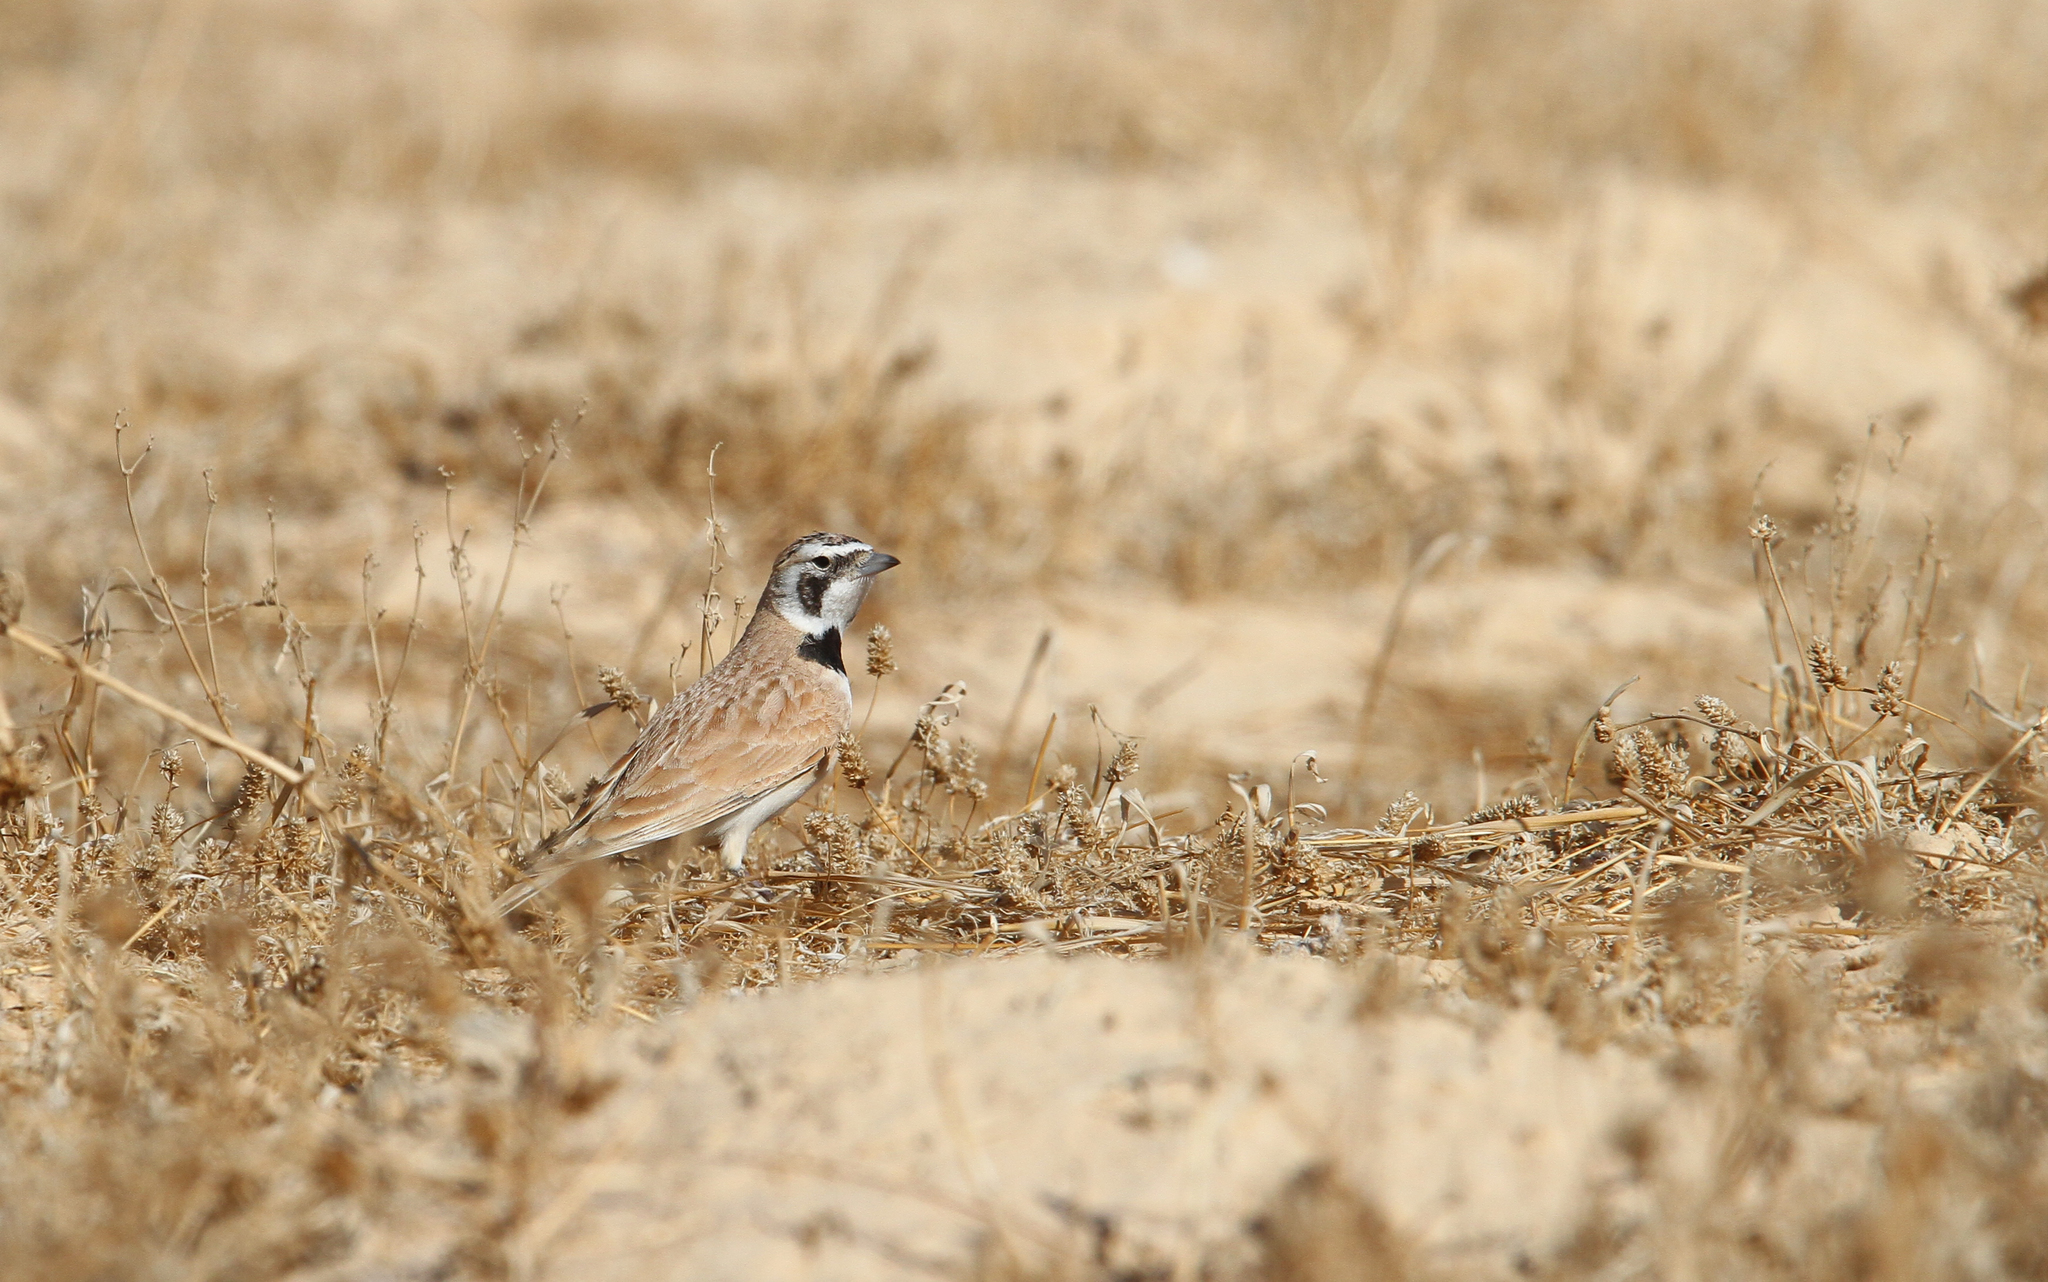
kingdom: Animalia
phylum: Chordata
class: Aves
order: Passeriformes
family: Alaudidae
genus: Eremophila
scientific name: Eremophila bilopha
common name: Temminck's lark
